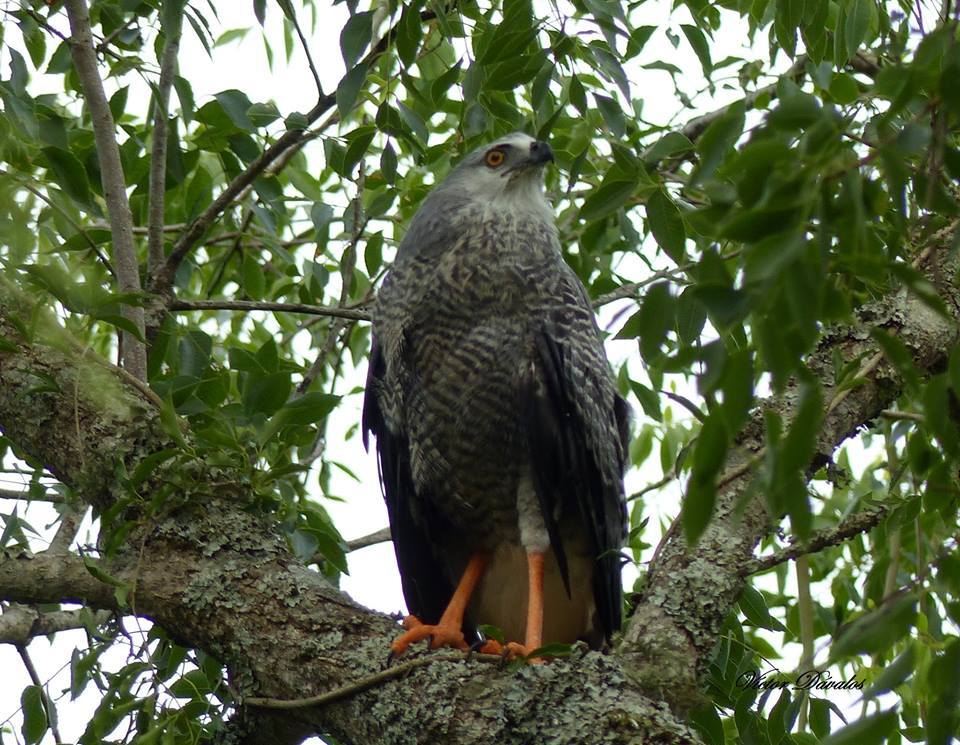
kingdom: Animalia
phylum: Chordata
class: Aves
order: Accipitriformes
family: Accipitridae
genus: Geranospiza
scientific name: Geranospiza caerulescens
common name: Crane hawk
